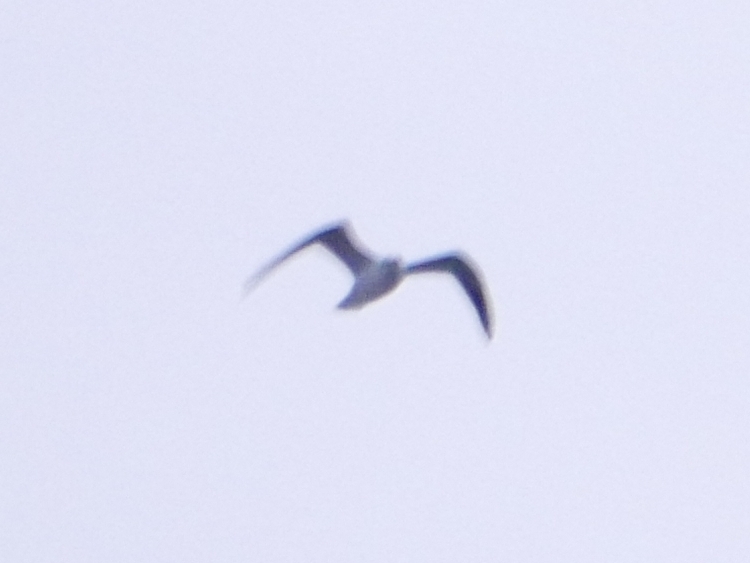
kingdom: Animalia
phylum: Chordata
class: Aves
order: Charadriiformes
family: Laridae
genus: Chroicocephalus
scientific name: Chroicocephalus ridibundus
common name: Black-headed gull
